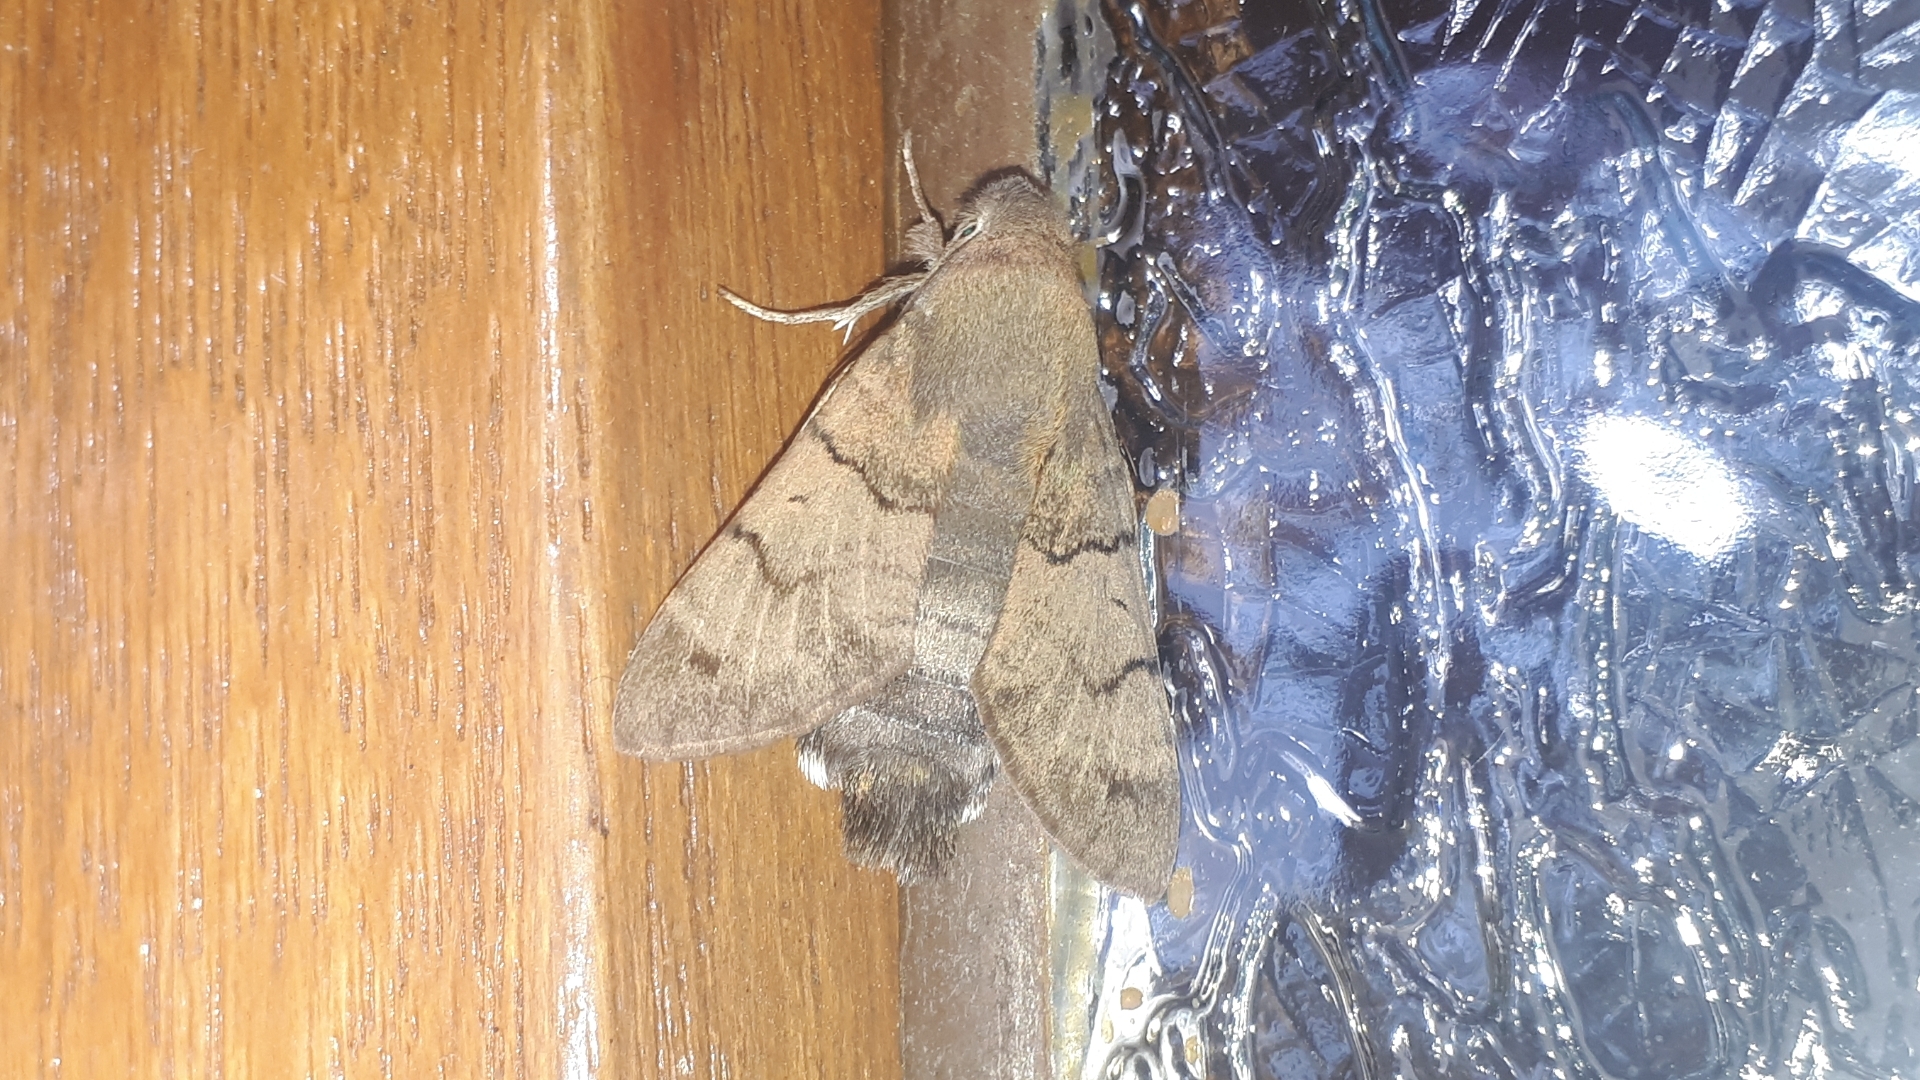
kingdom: Animalia
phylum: Arthropoda
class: Insecta
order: Lepidoptera
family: Sphingidae
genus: Macroglossum
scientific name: Macroglossum stellatarum
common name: Humming-bird hawk-moth
